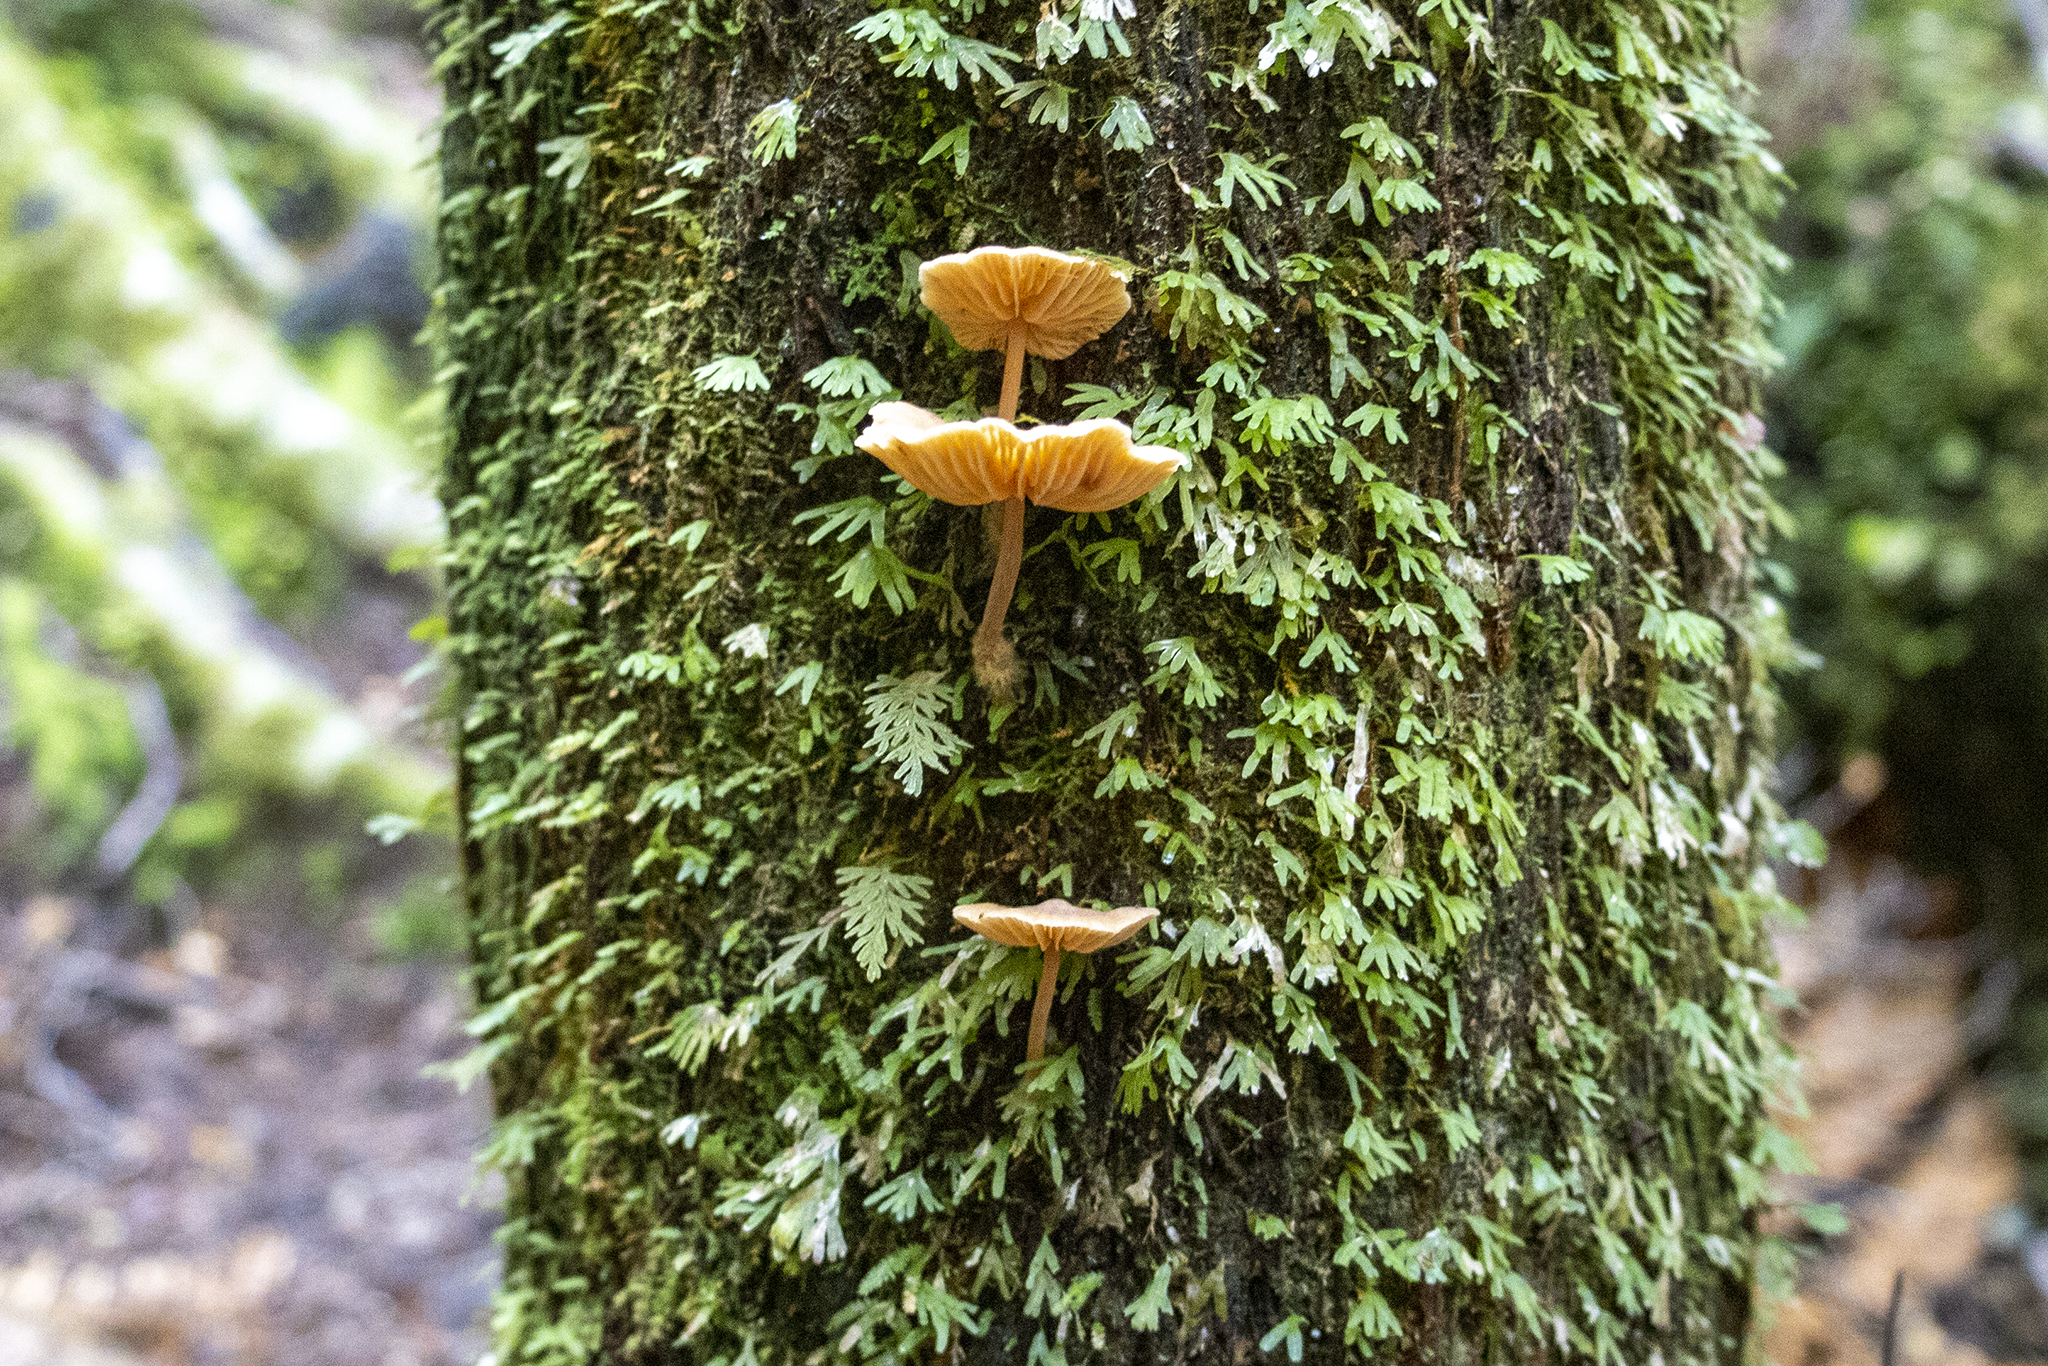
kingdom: Fungi
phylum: Basidiomycota
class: Agaricomycetes
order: Agaricales
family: Mycenaceae
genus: Heimiomyces
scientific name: Heimiomyces velutipes
